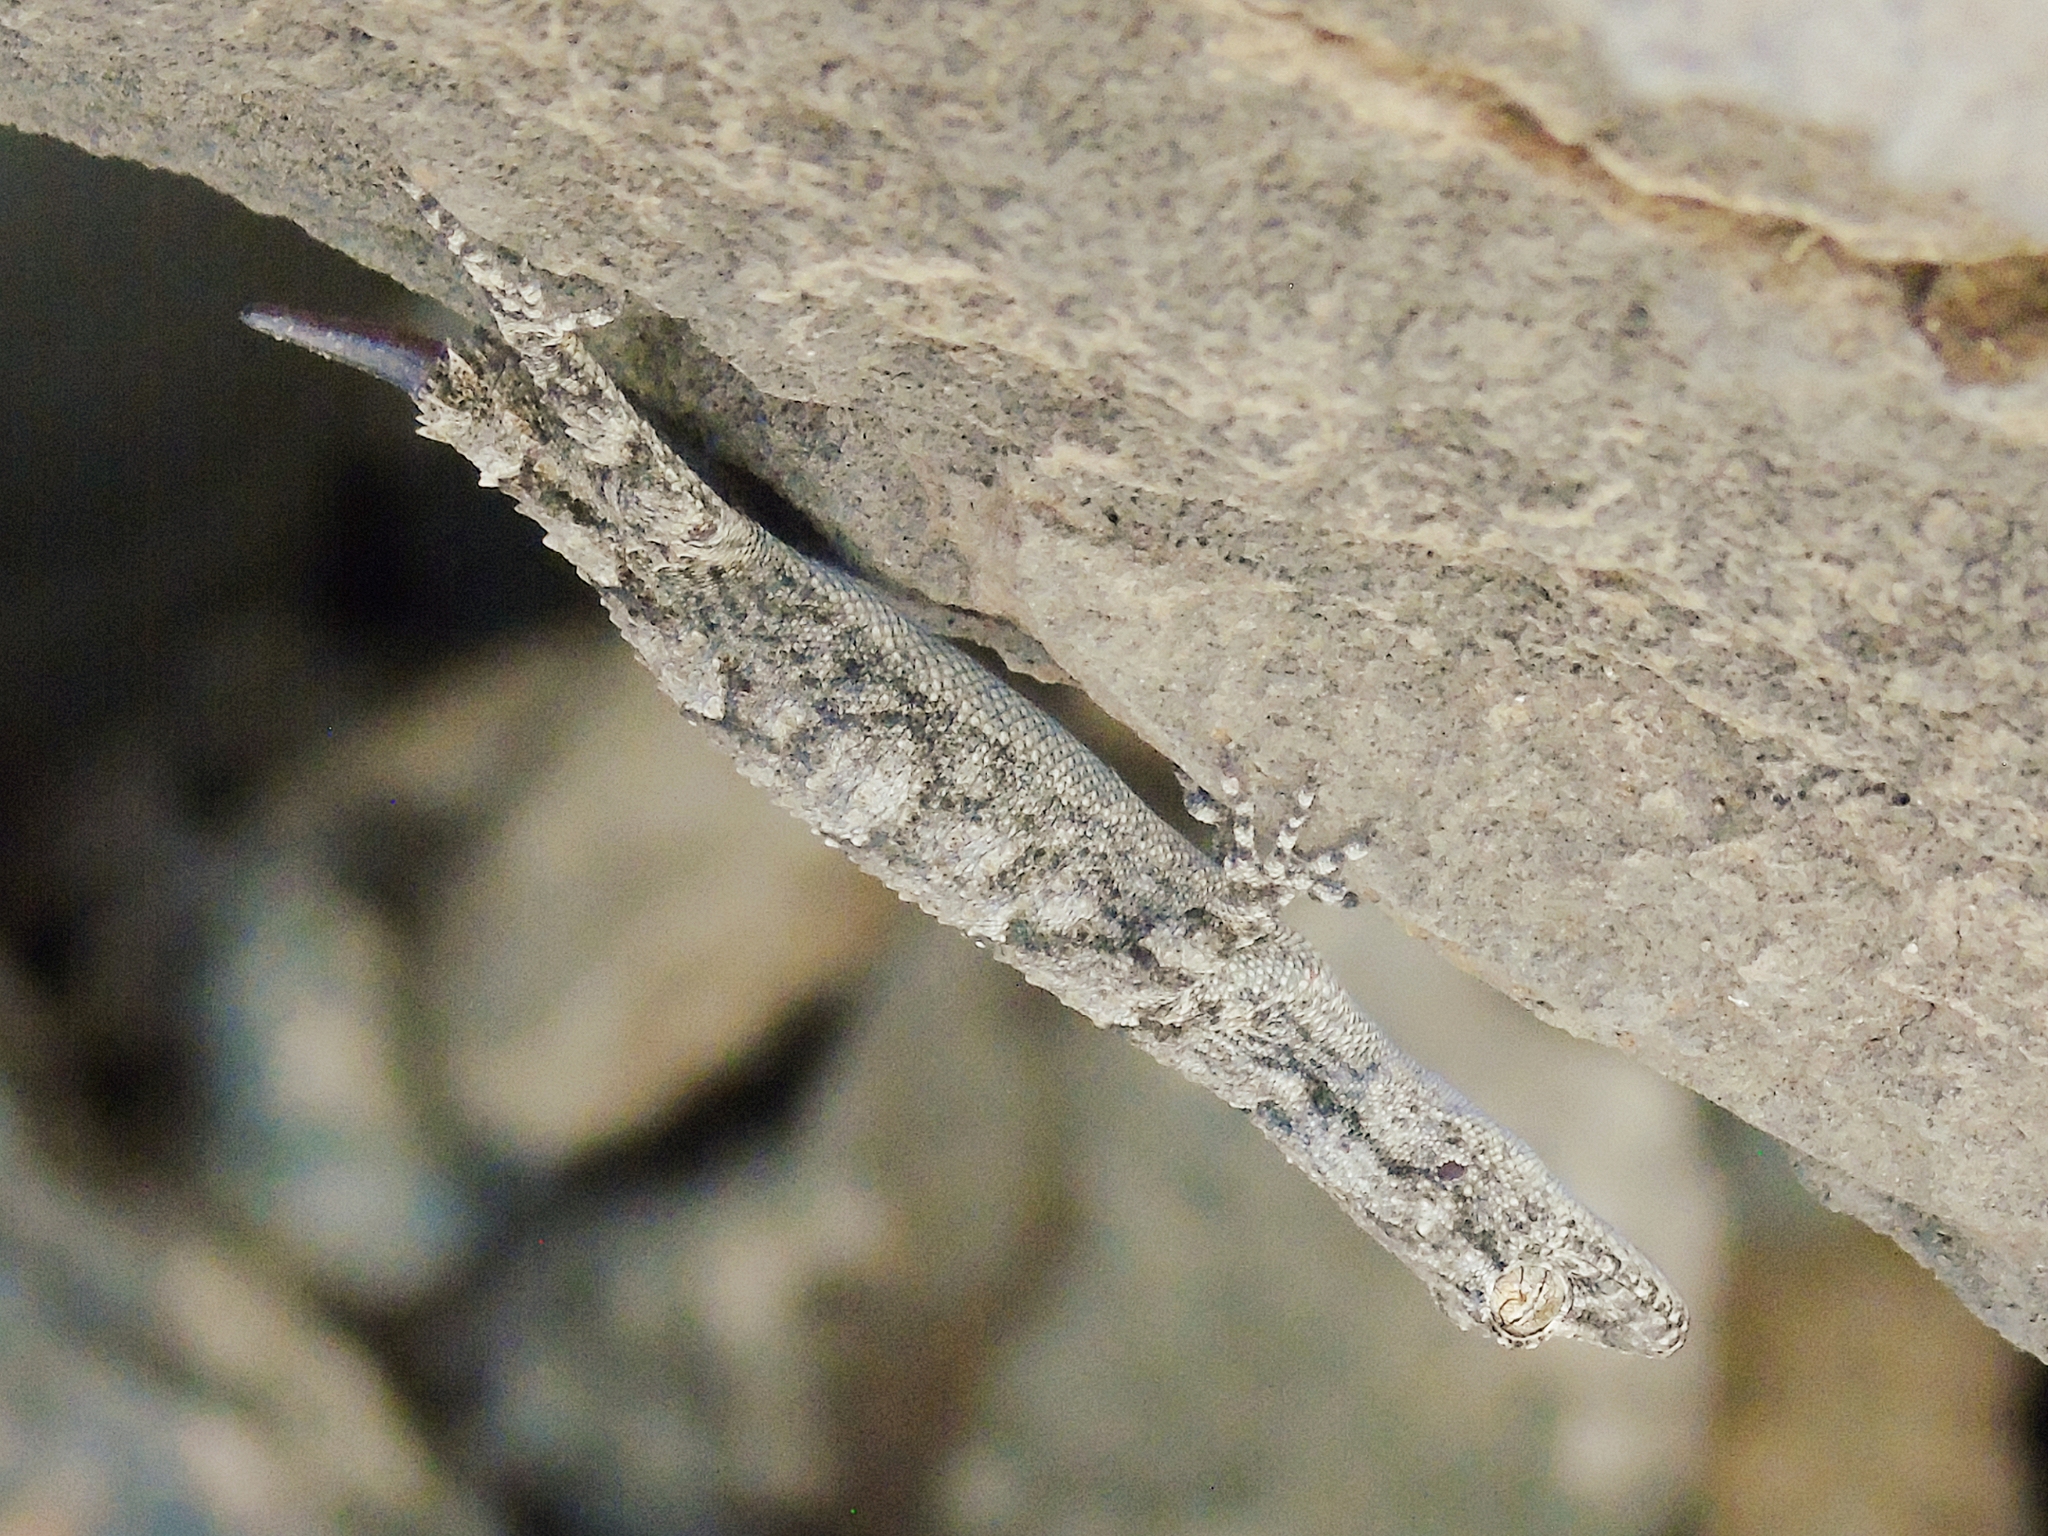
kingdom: Animalia
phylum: Chordata
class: Squamata
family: Gekkonidae
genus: Mediodactylus
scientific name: Mediodactylus heterocercus
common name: Asia minor thin-toed gecko
